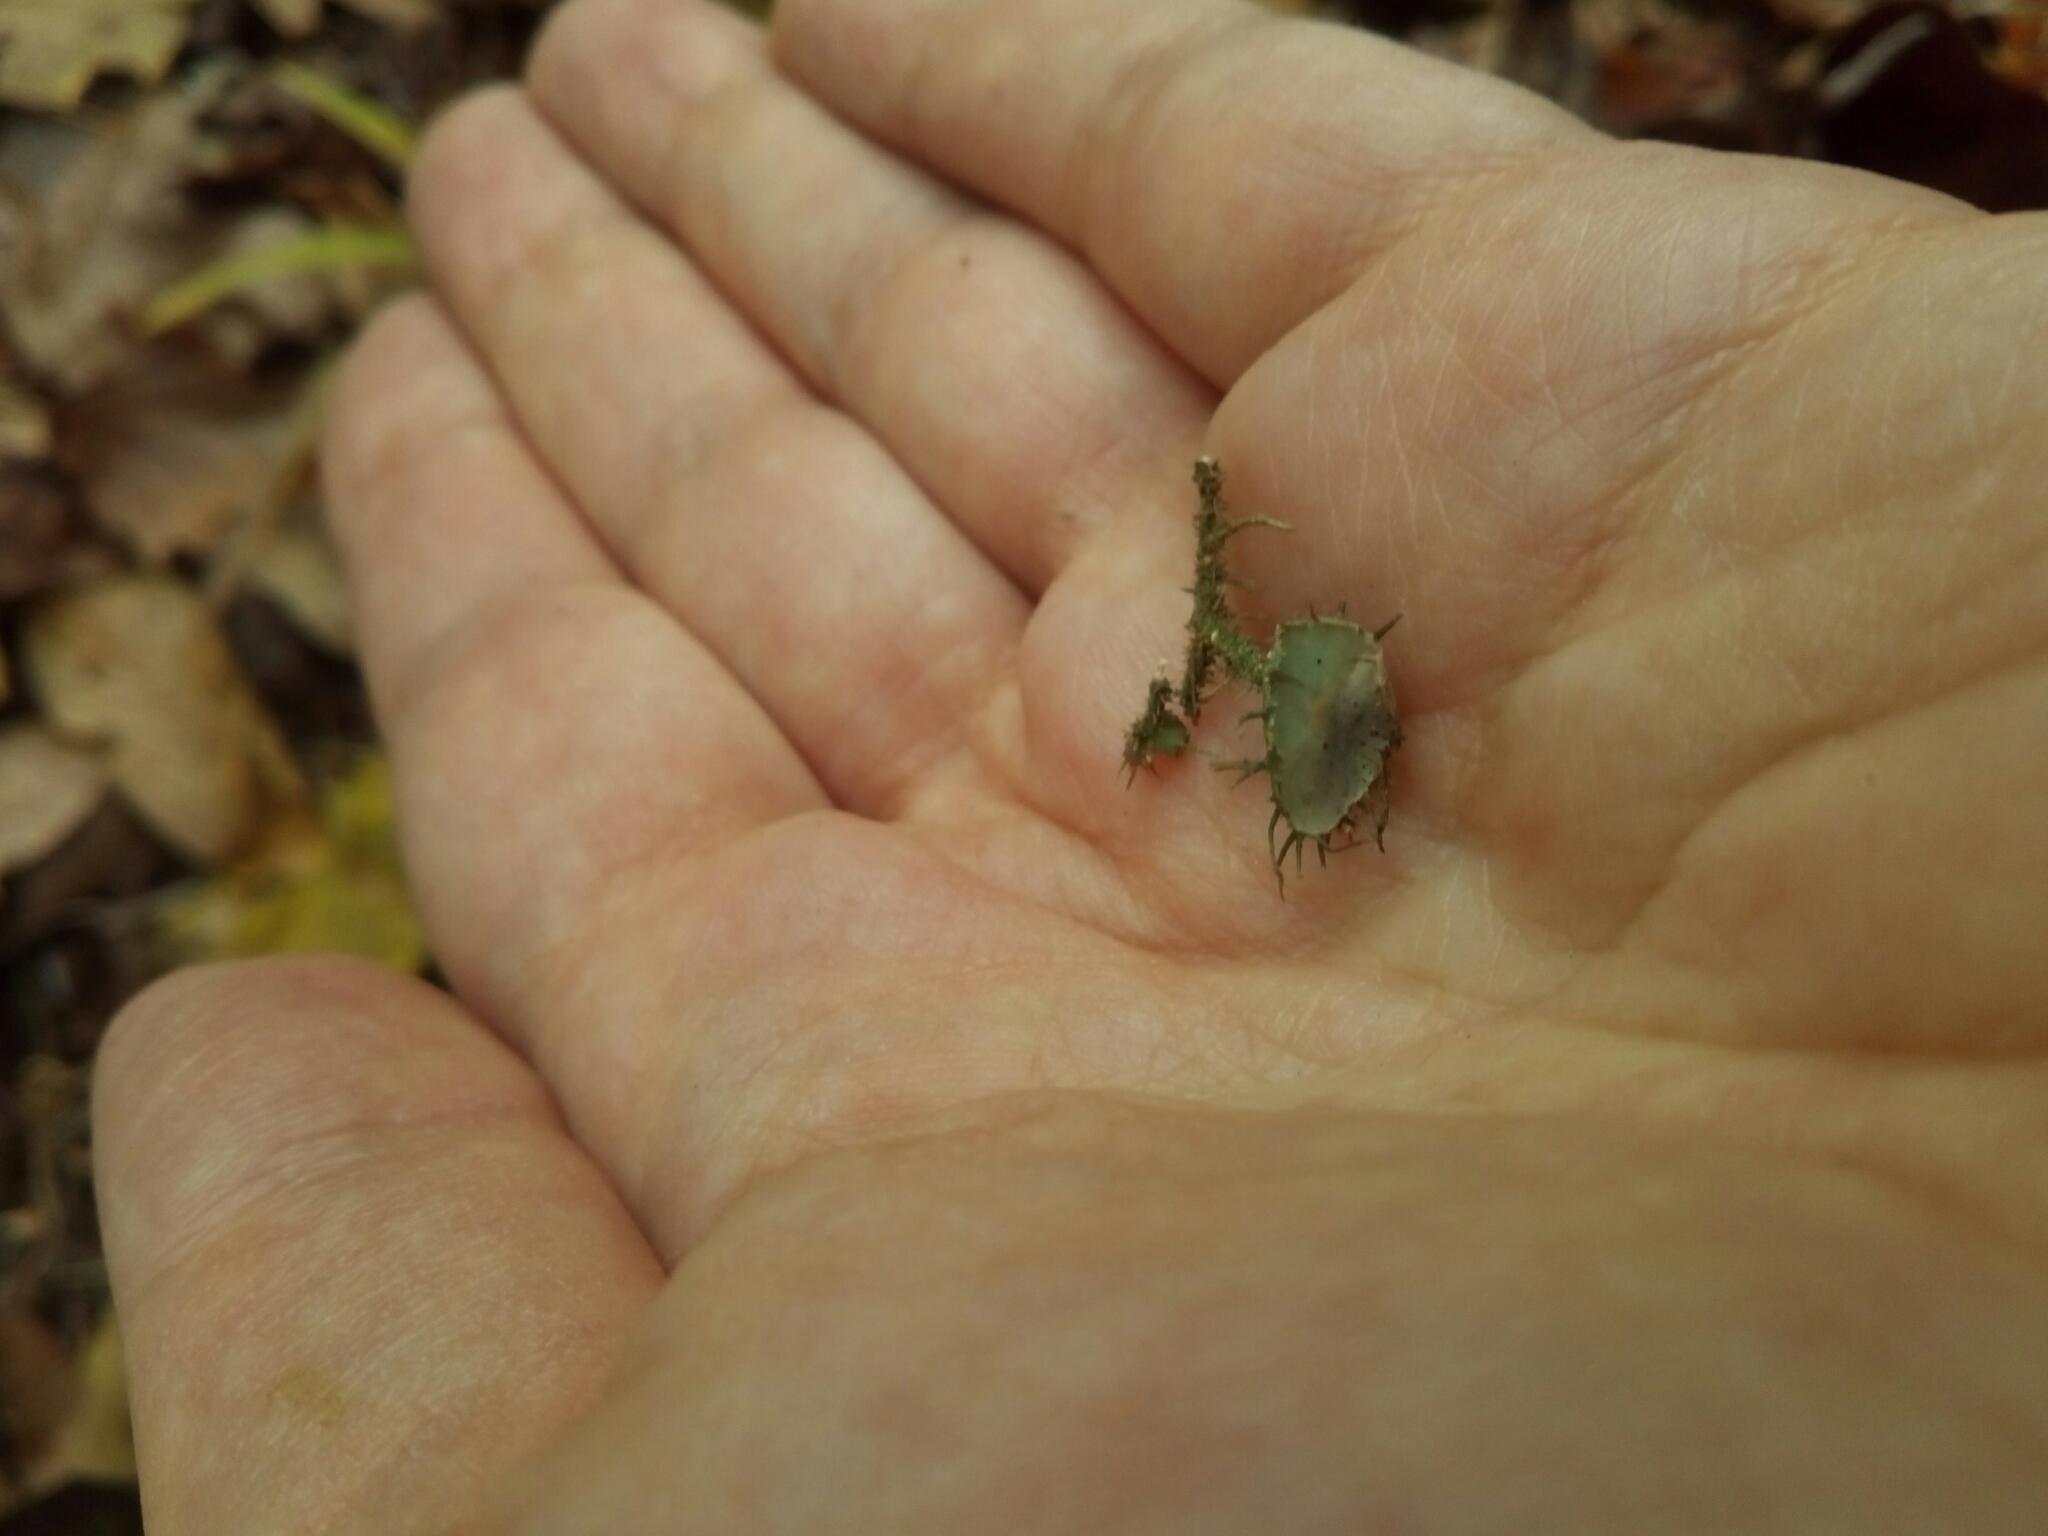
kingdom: Fungi
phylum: Ascomycota
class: Lecanoromycetes
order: Lecanorales
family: Parmeliaceae
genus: Usnea
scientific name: Usnea strigosa
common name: Bushy beard lichen
